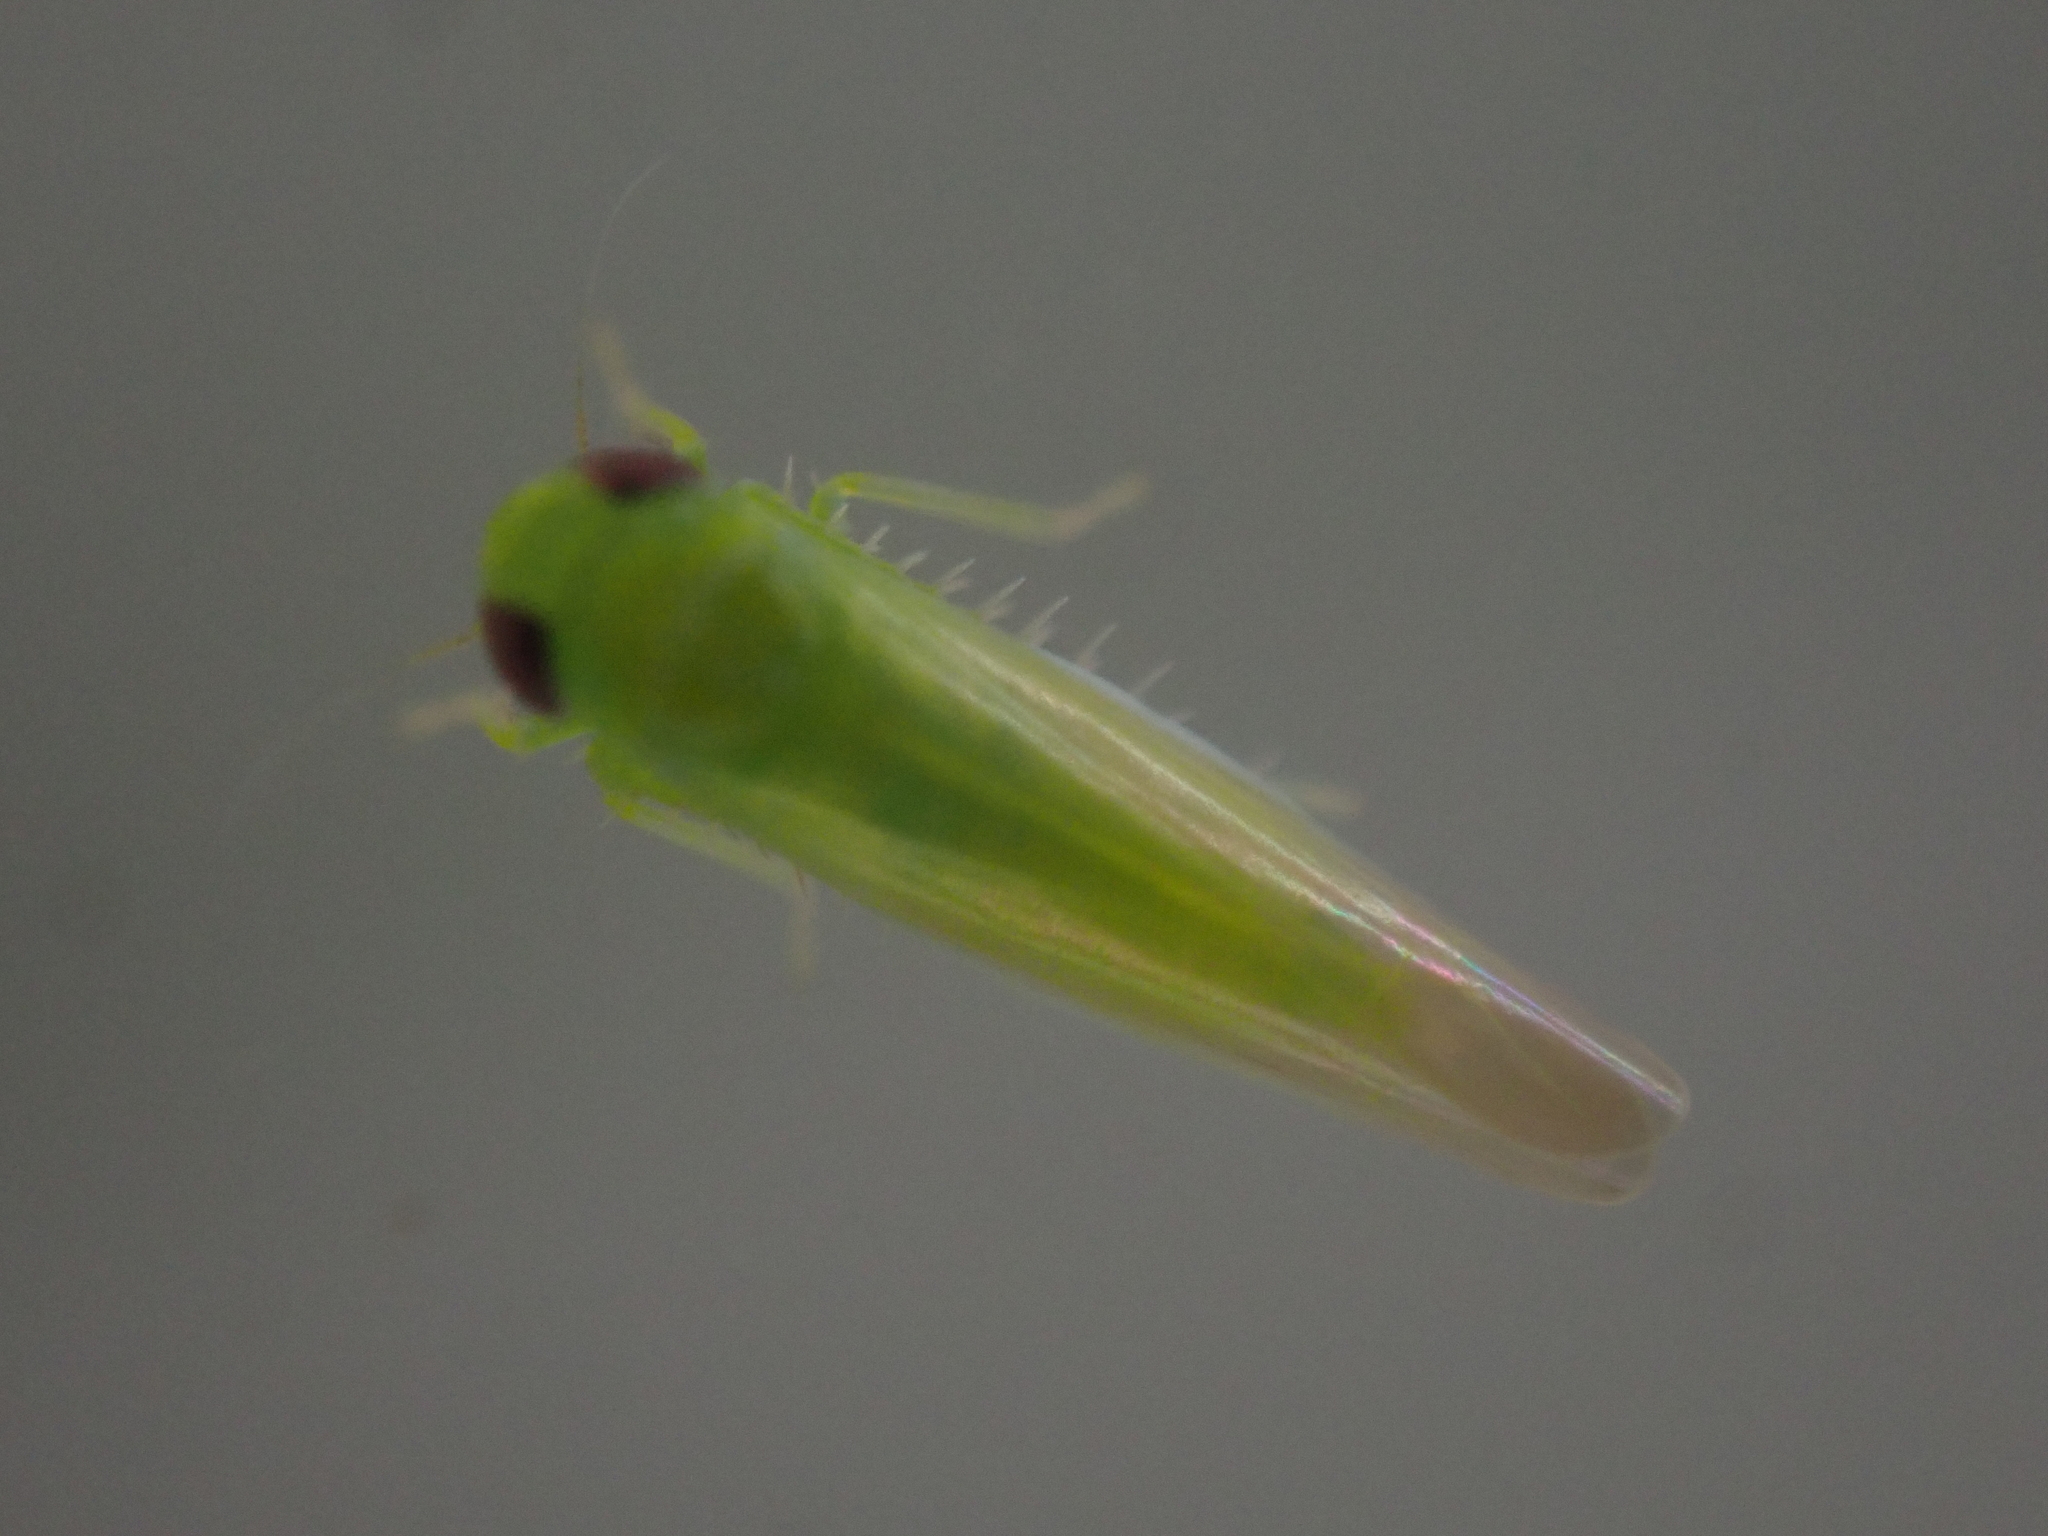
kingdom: Animalia
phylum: Arthropoda
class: Insecta
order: Hemiptera
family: Cicadellidae
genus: Empoasca
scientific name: Empoasca fabae
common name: Potato leafhopper
